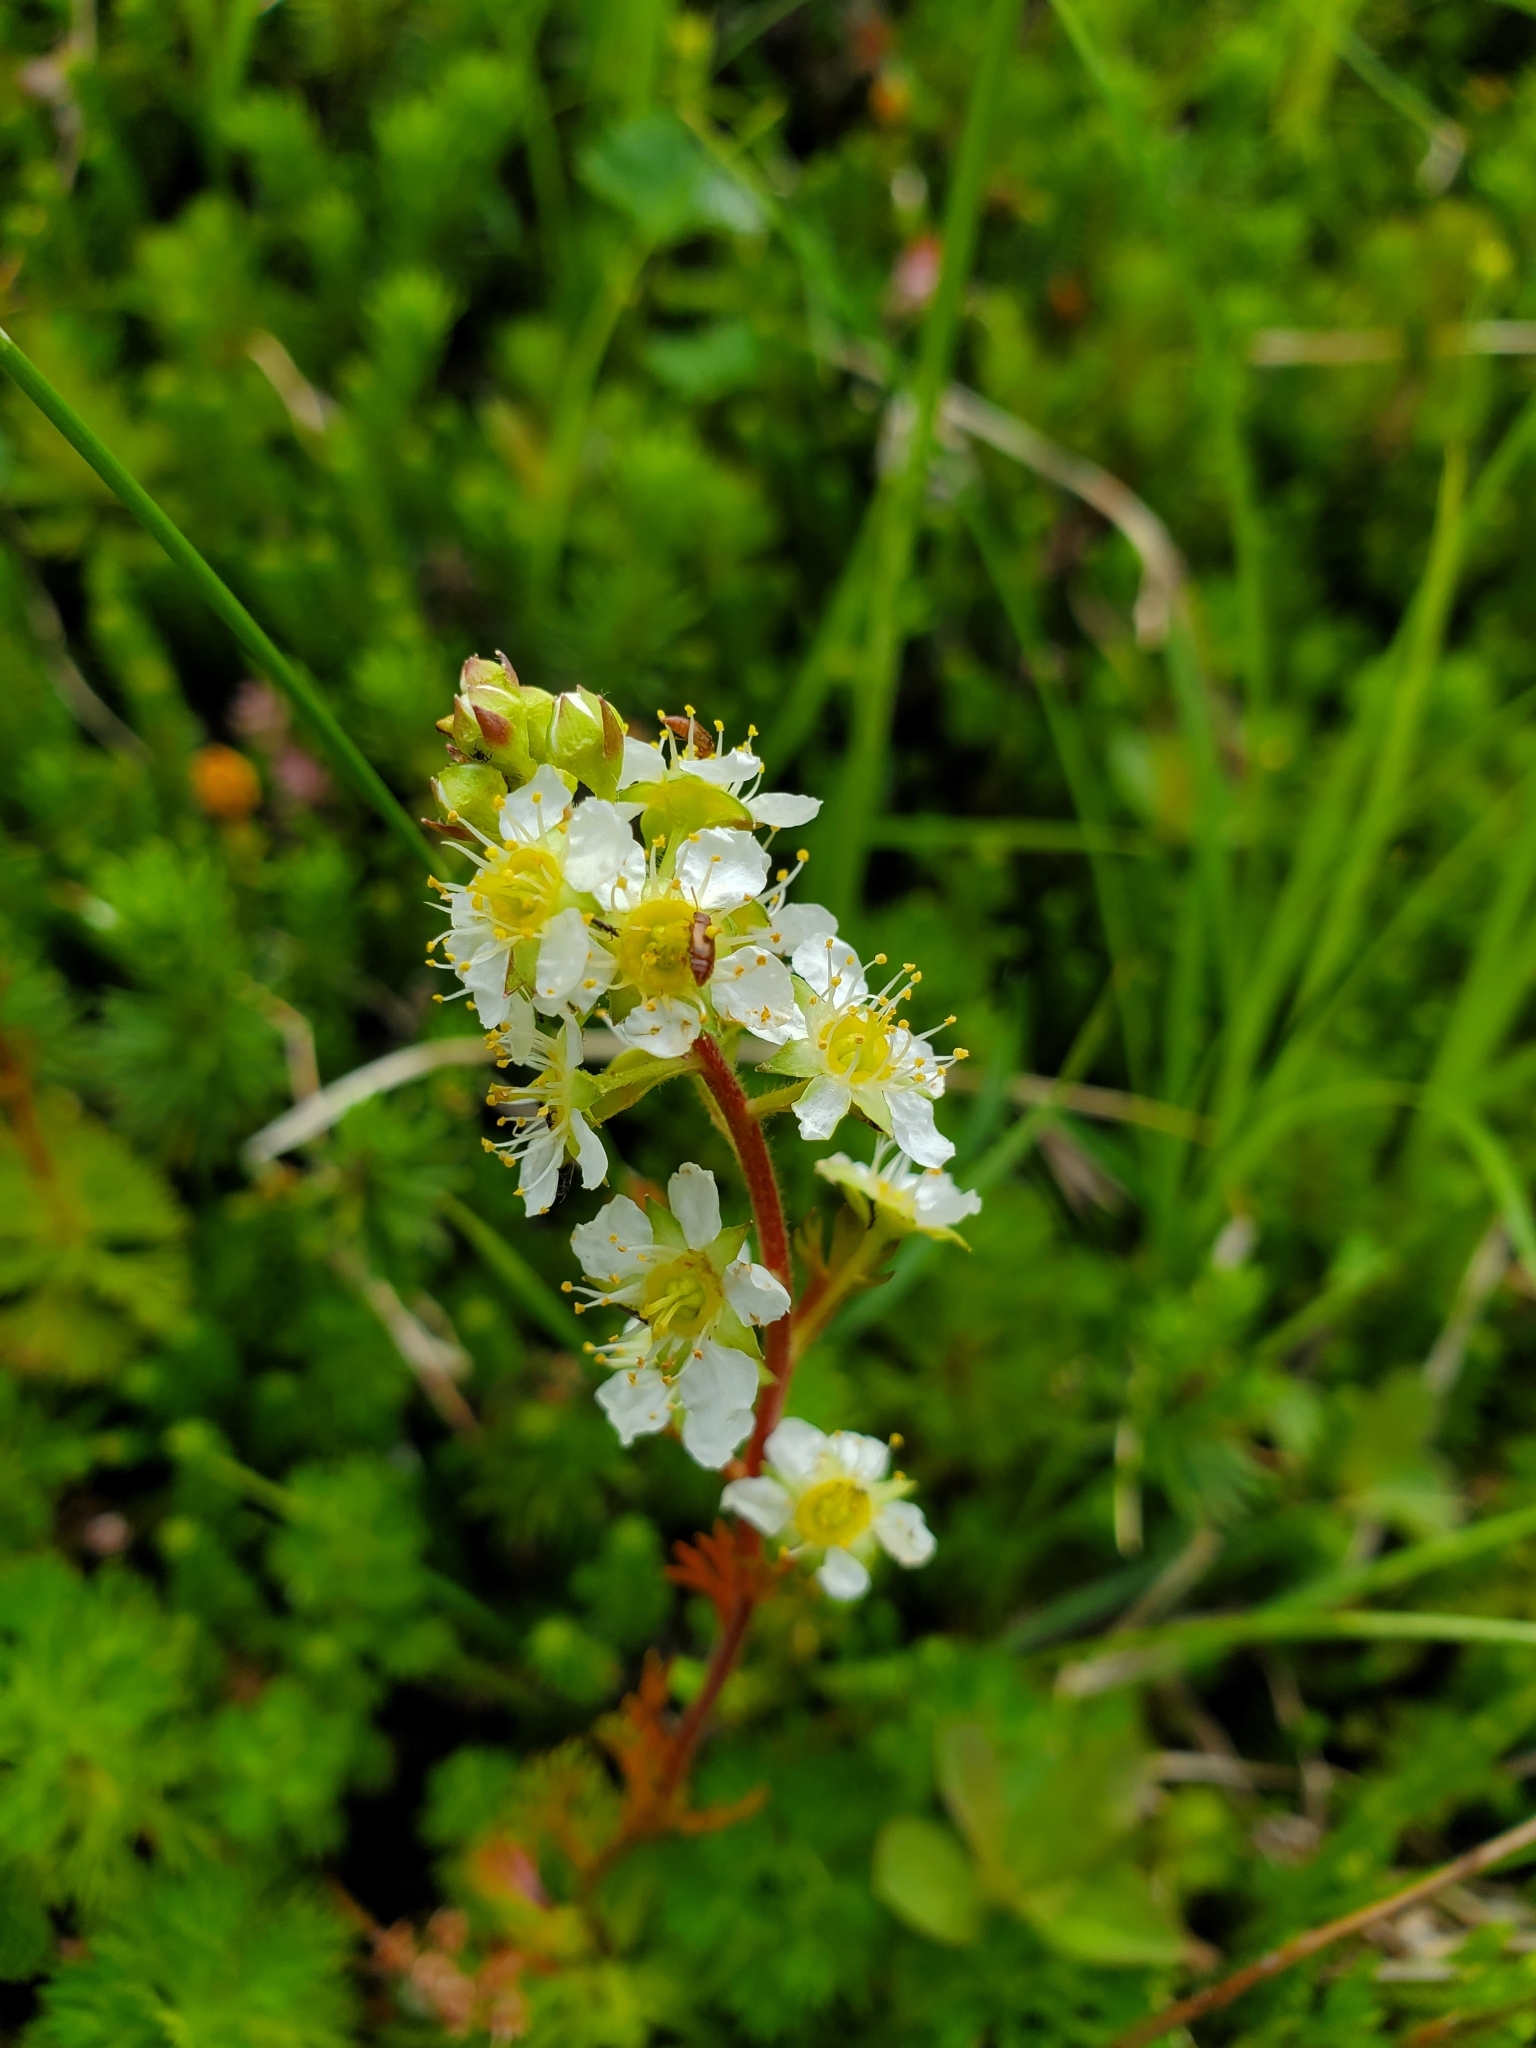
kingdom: Plantae
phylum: Tracheophyta
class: Magnoliopsida
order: Rosales
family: Rosaceae
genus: Luetkea
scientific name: Luetkea pectinata
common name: Partridgefoot
